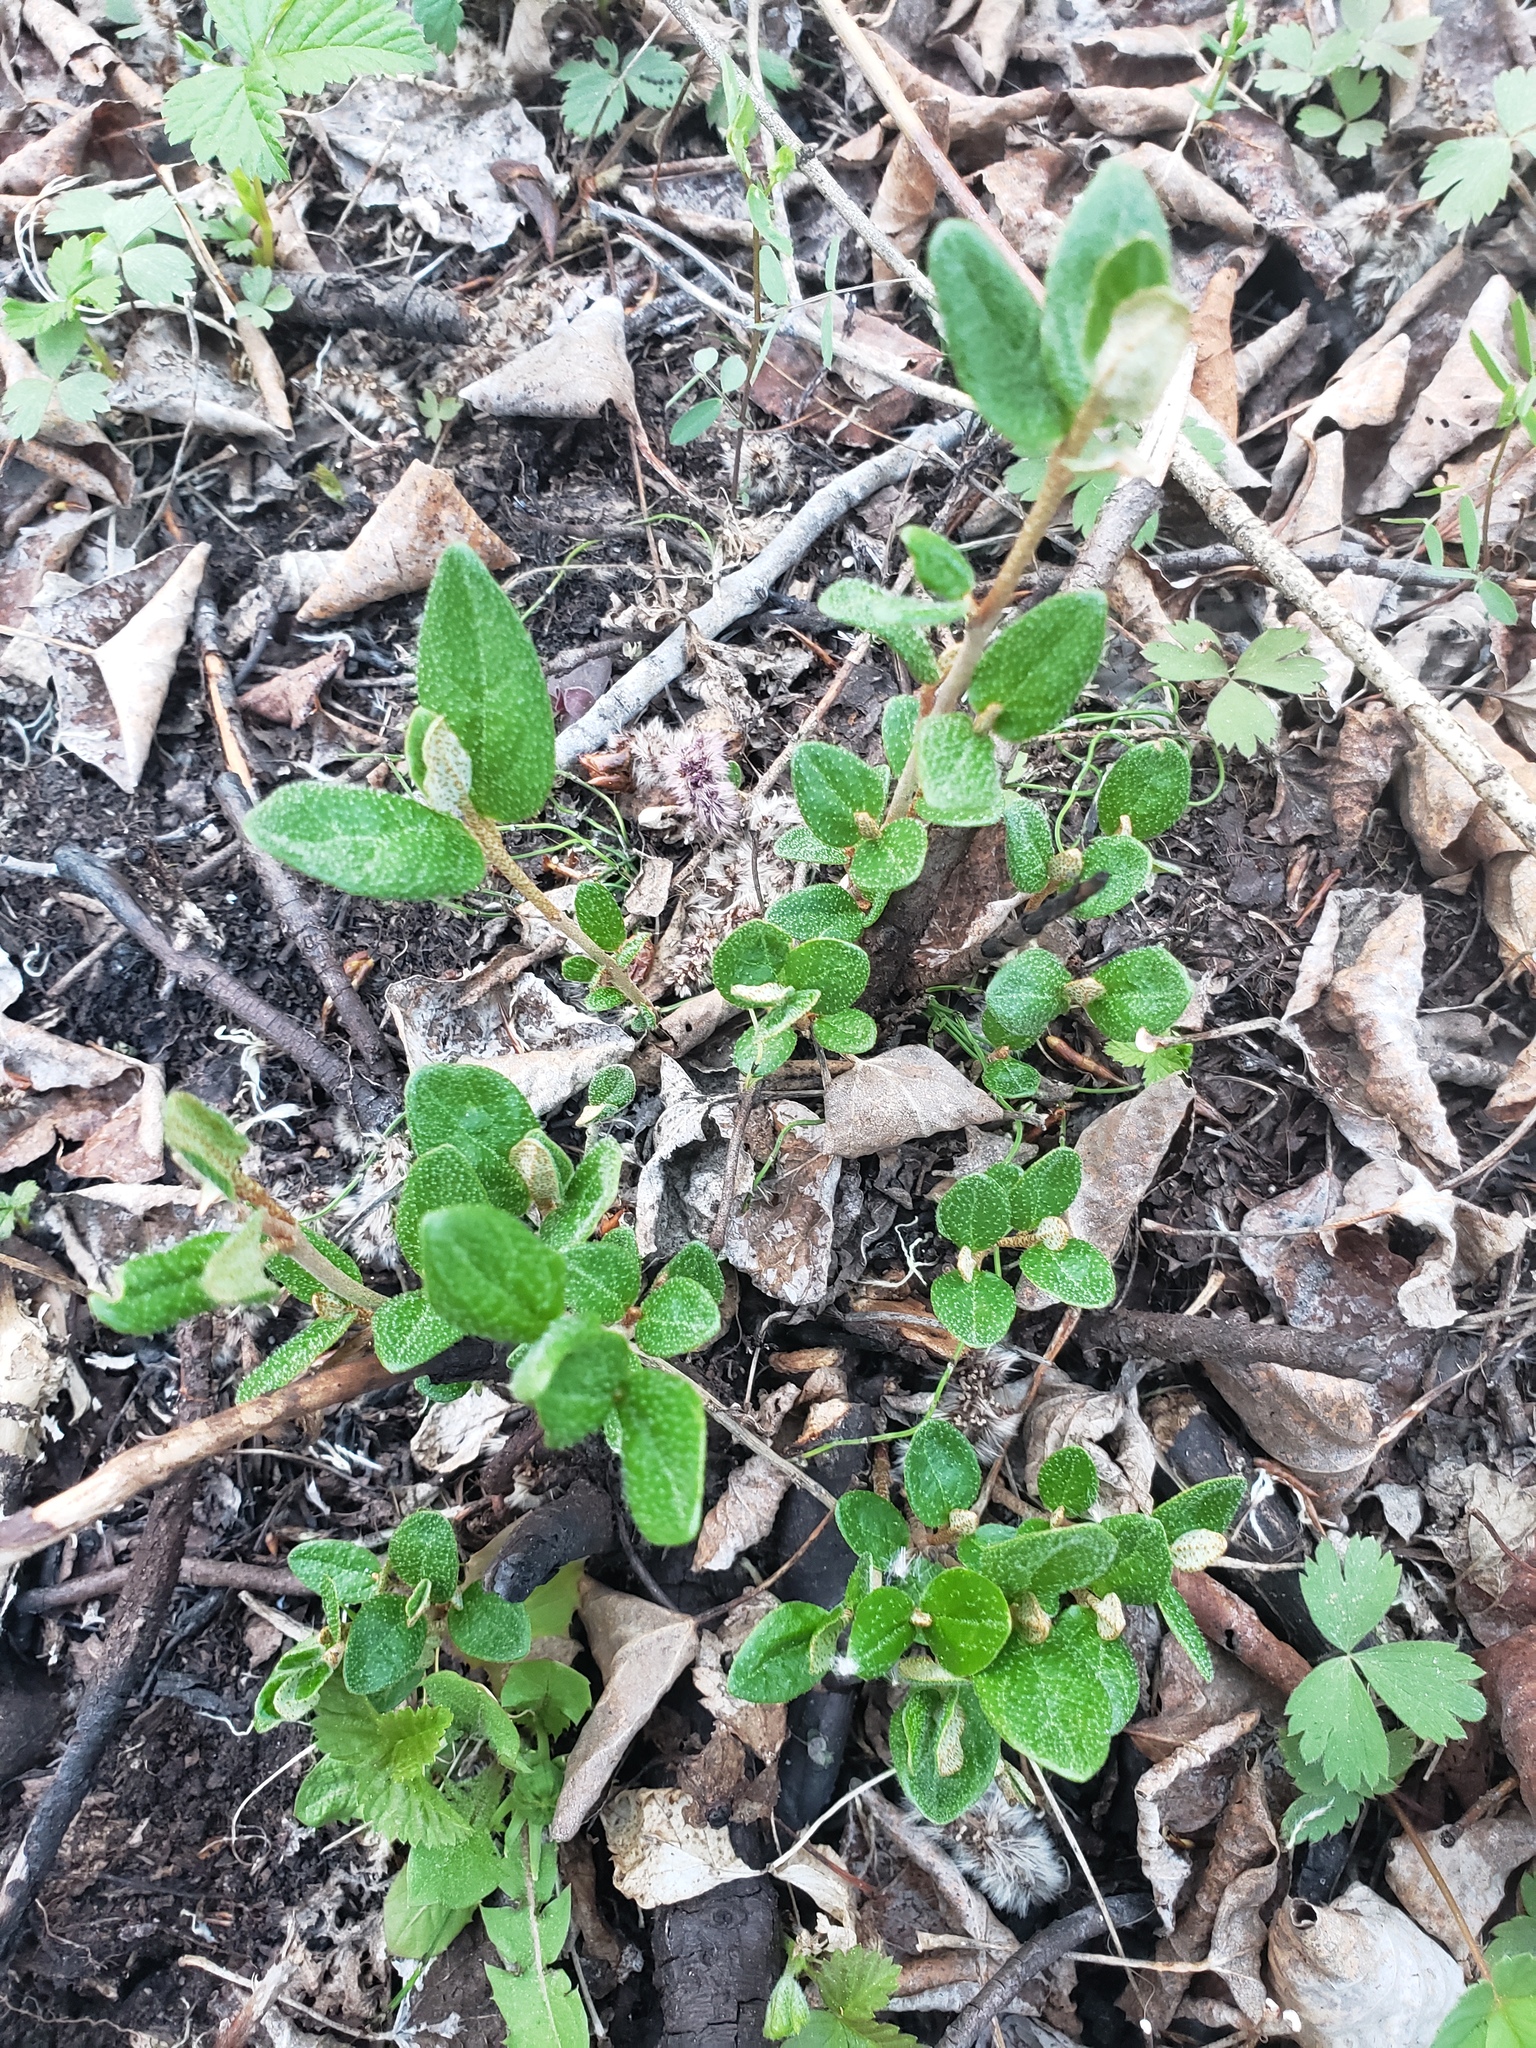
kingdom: Plantae
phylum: Tracheophyta
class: Magnoliopsida
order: Rosales
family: Elaeagnaceae
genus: Shepherdia
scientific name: Shepherdia canadensis
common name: Soapberry
